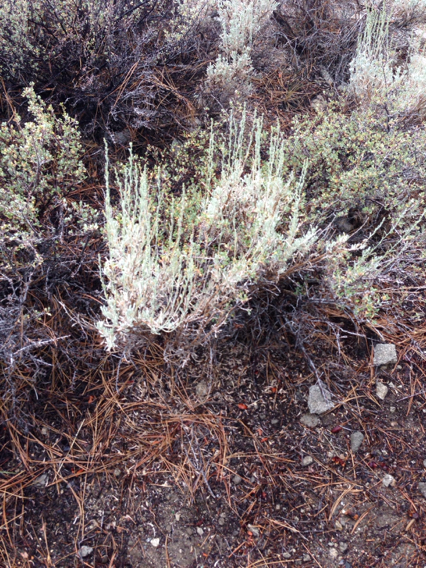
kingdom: Plantae
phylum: Tracheophyta
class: Magnoliopsida
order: Asterales
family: Asteraceae
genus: Artemisia
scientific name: Artemisia tridentata
